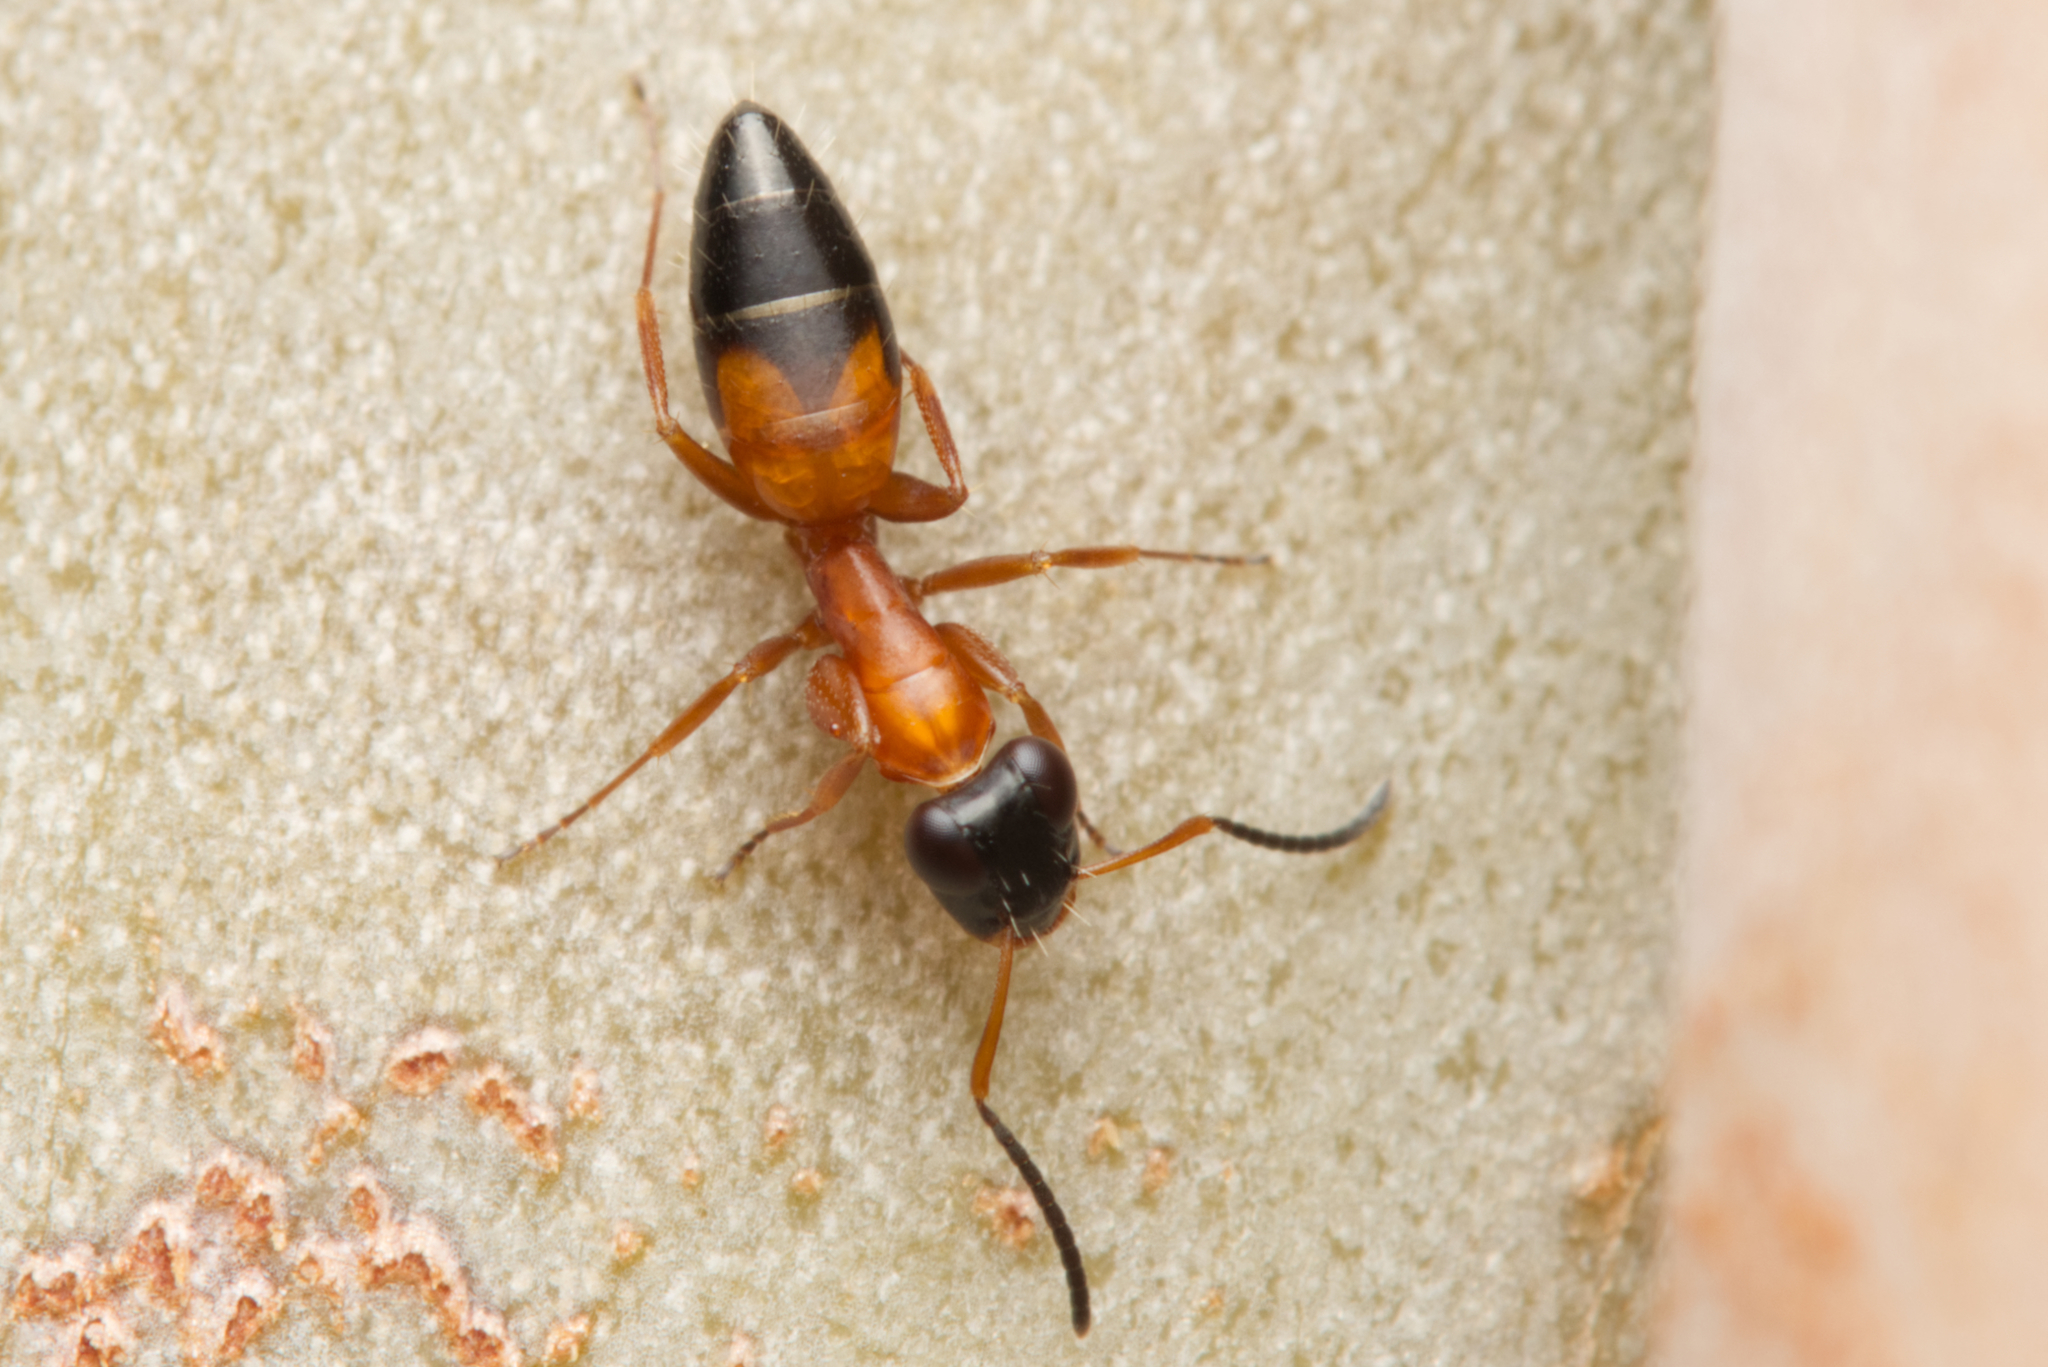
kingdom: Animalia
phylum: Arthropoda
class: Insecta
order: Hymenoptera
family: Formicidae
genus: Opisthopsis
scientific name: Opisthopsis rufithorax
